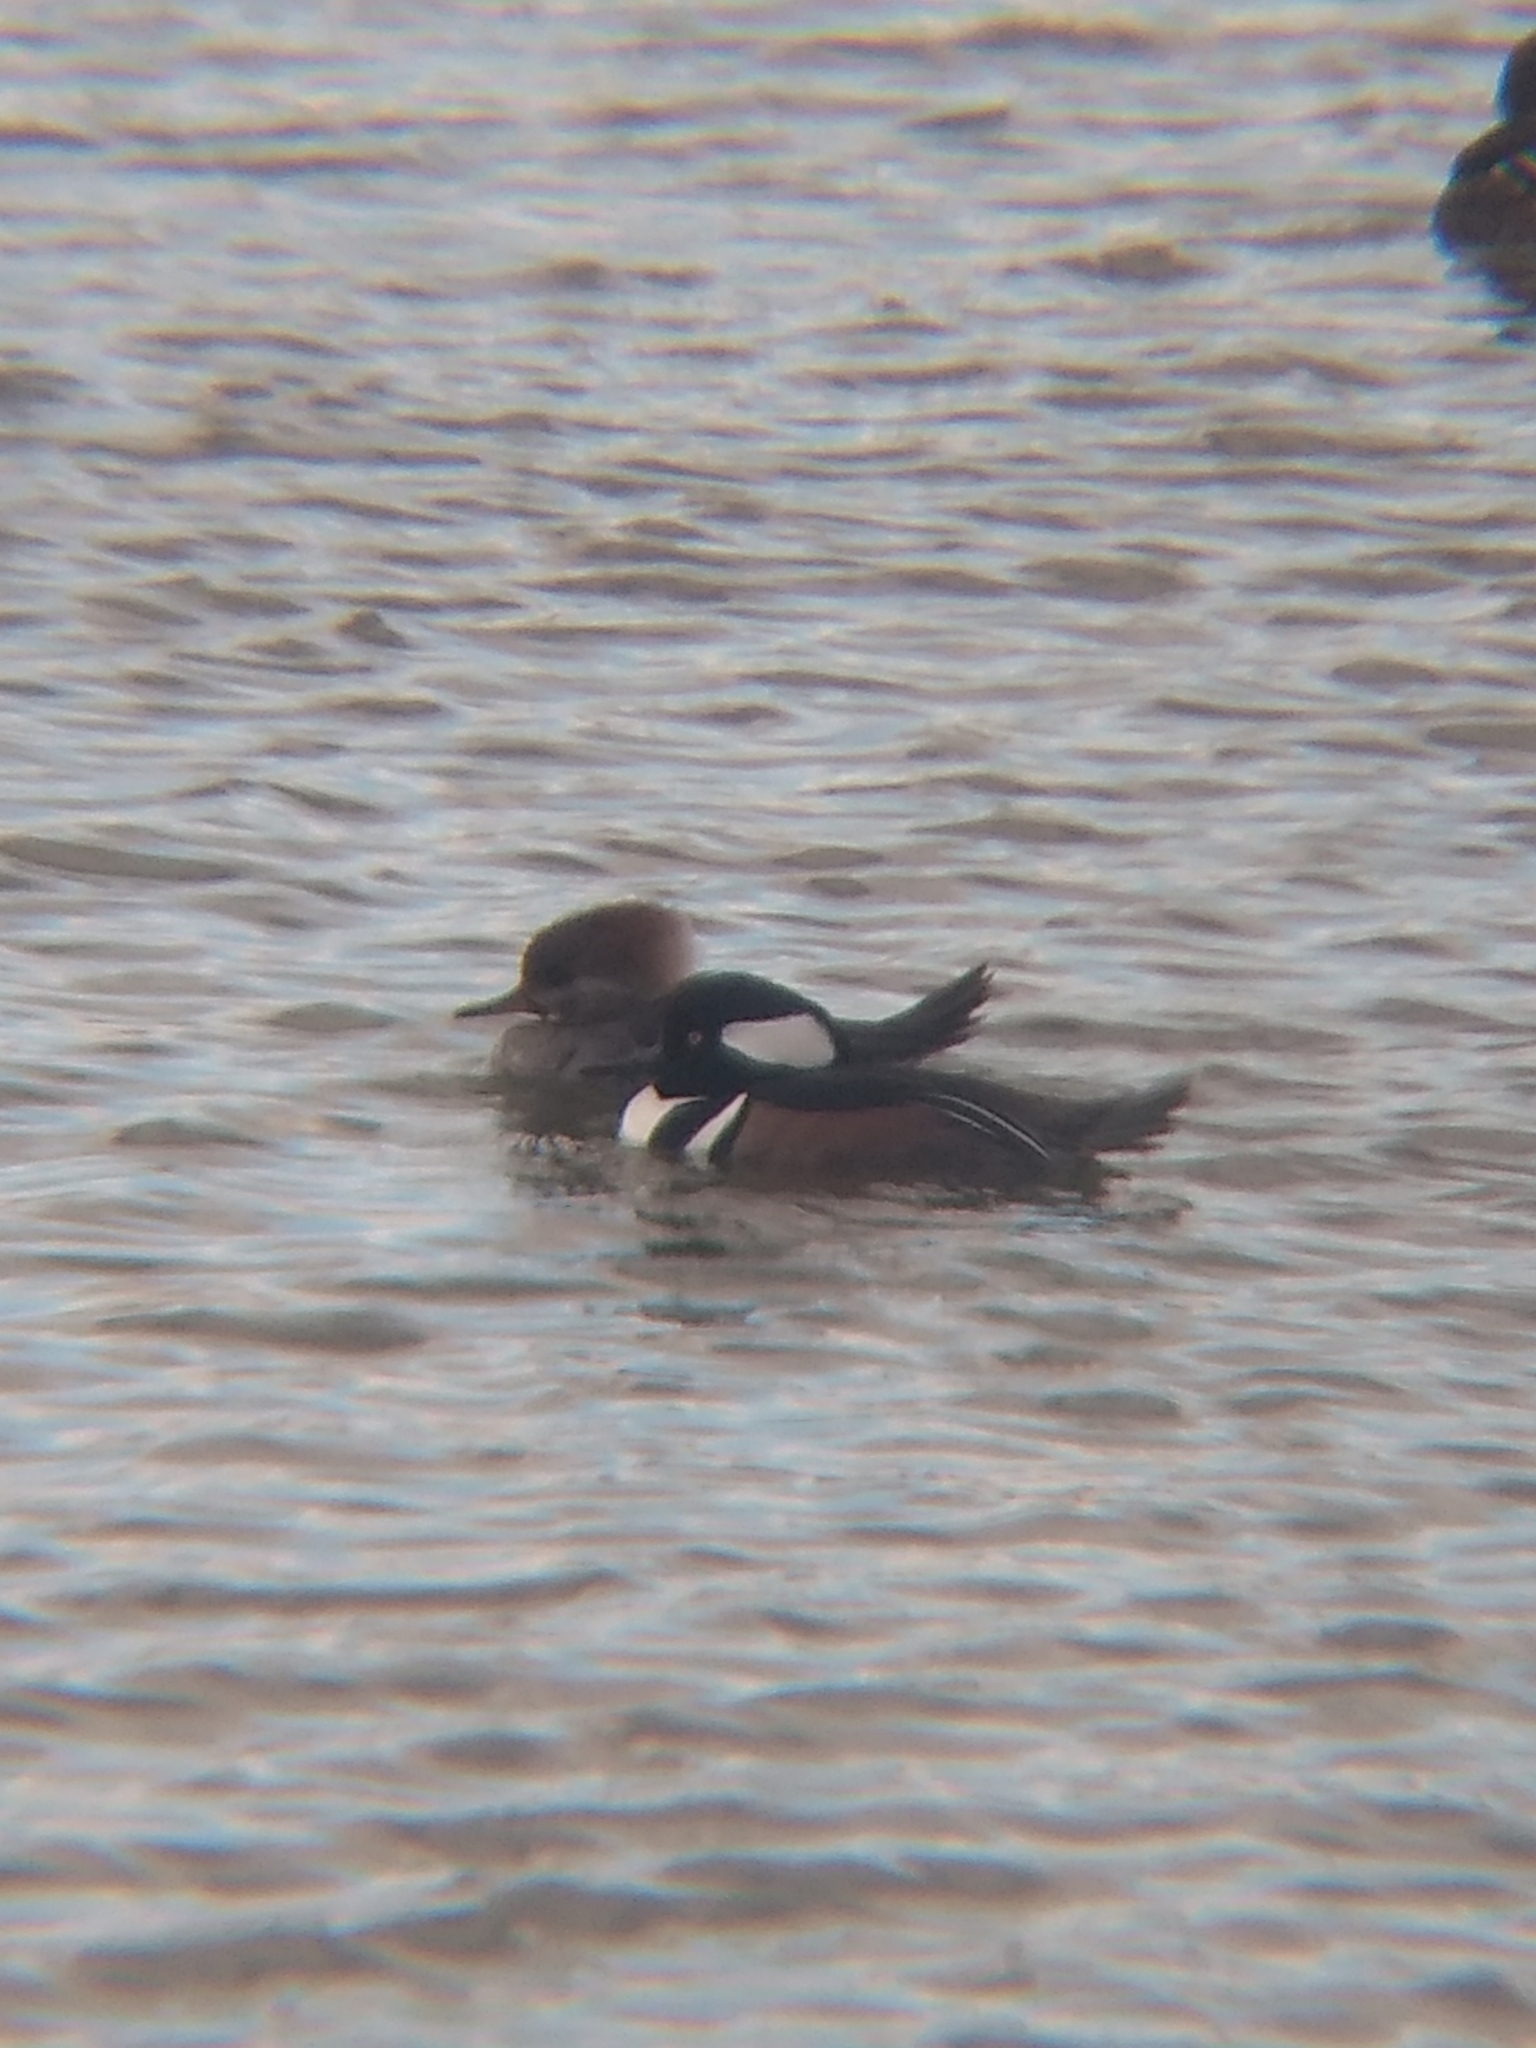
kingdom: Animalia
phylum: Chordata
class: Aves
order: Anseriformes
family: Anatidae
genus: Lophodytes
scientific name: Lophodytes cucullatus
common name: Hooded merganser
